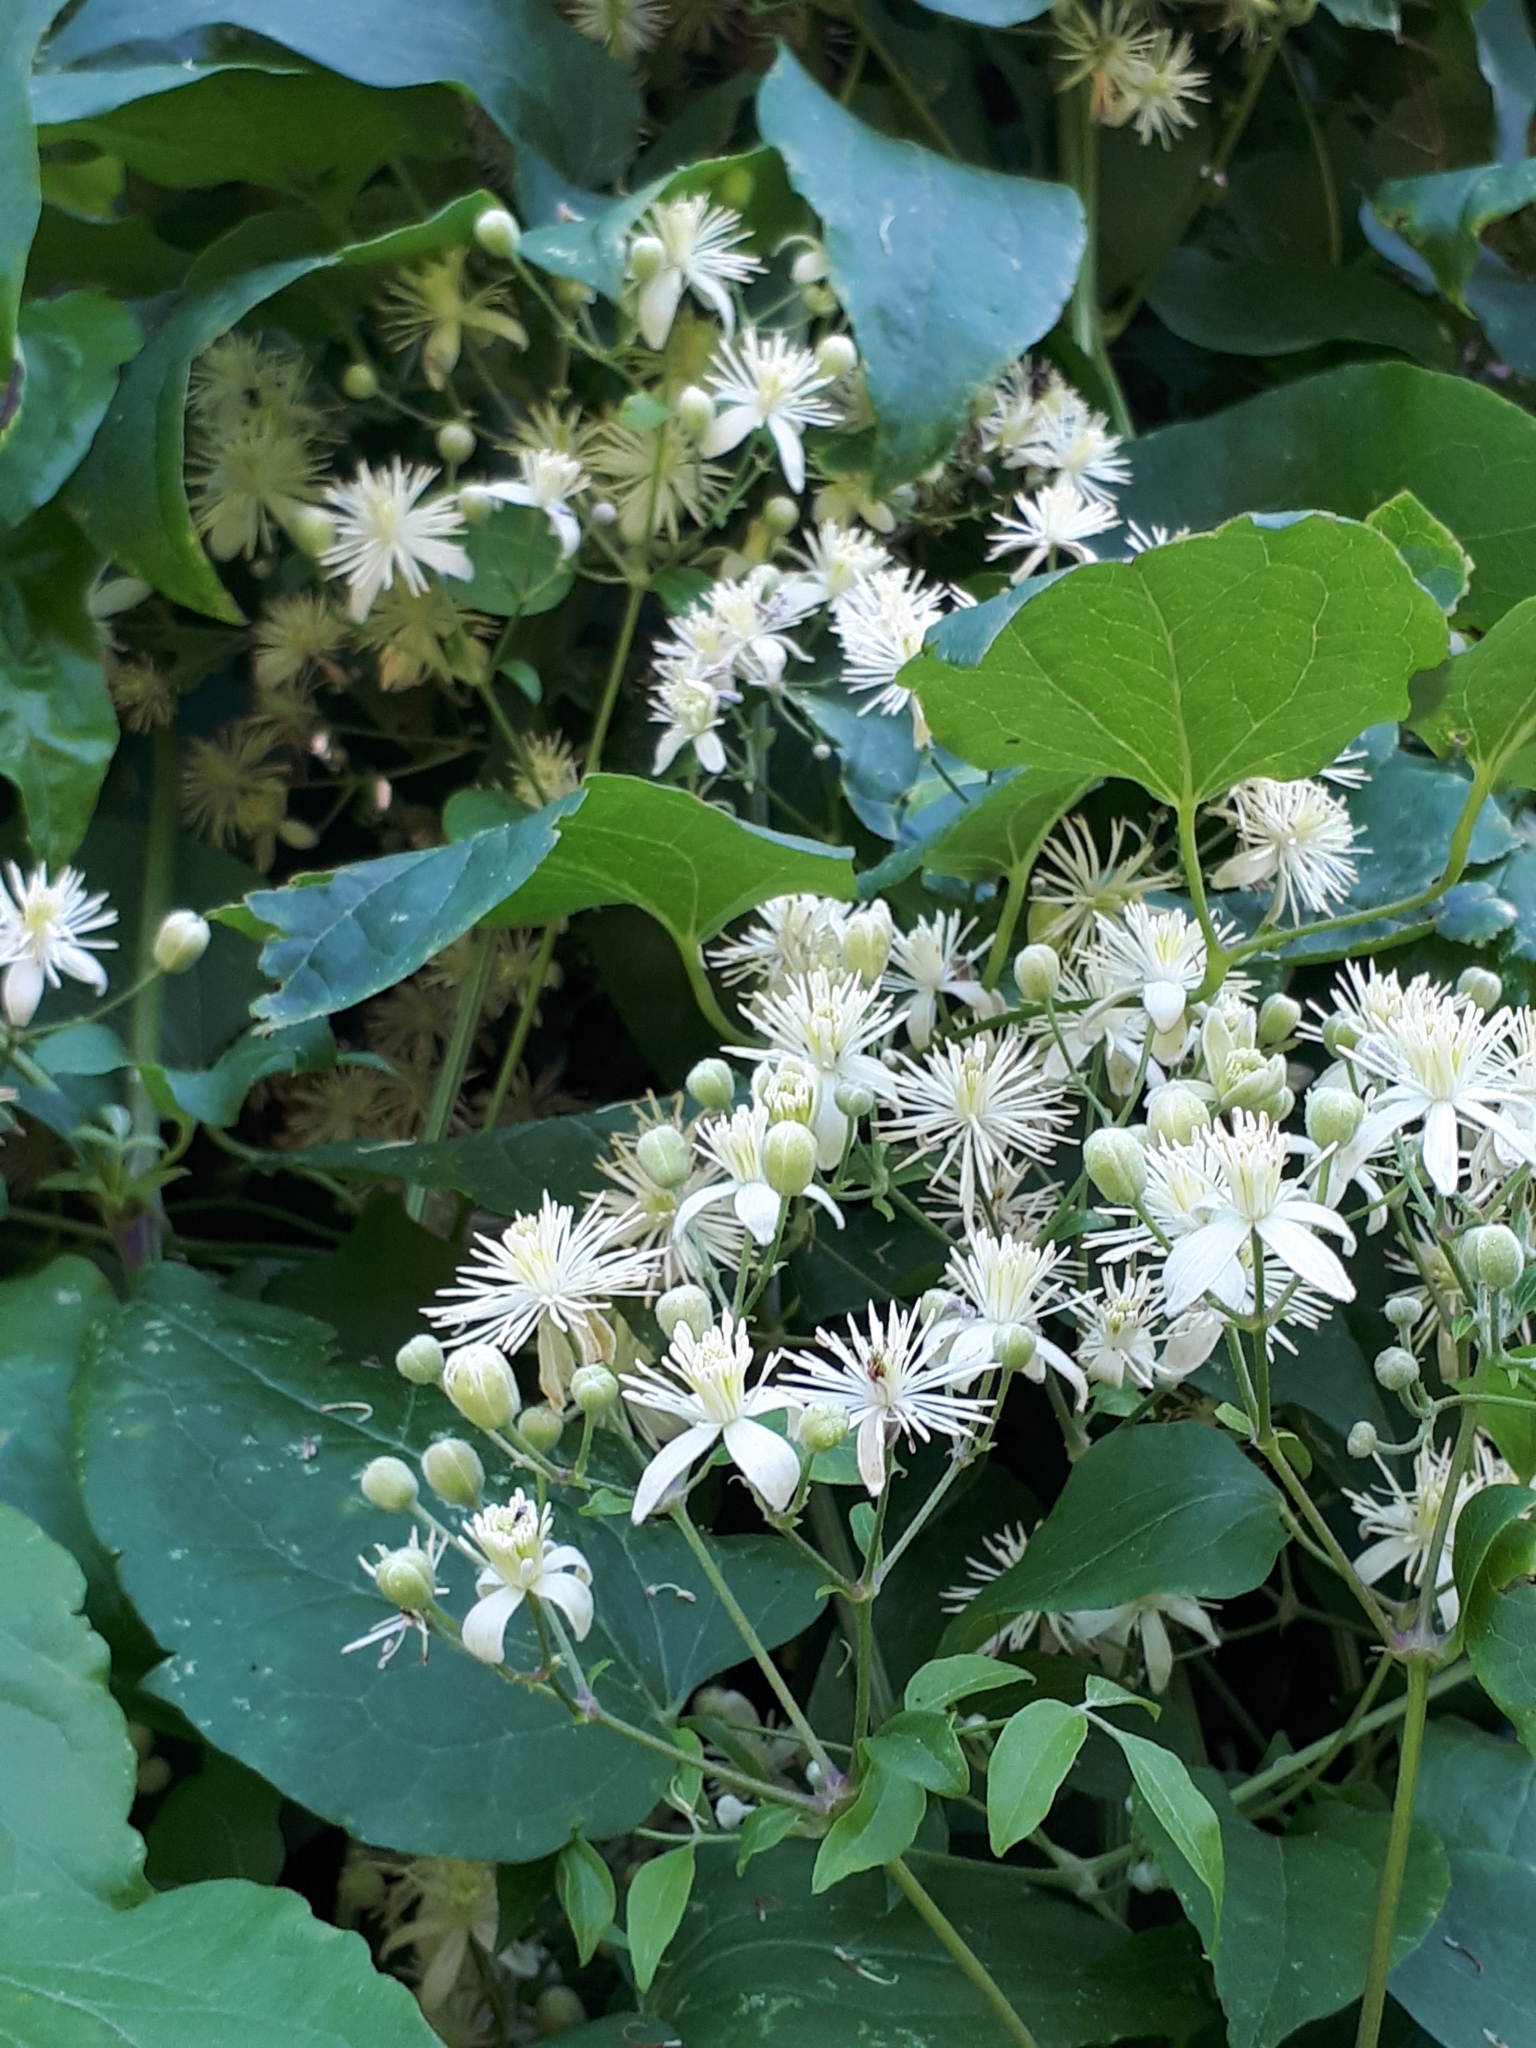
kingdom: Plantae
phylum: Tracheophyta
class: Magnoliopsida
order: Ranunculales
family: Ranunculaceae
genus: Clematis
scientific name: Clematis vitalba
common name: Evergreen clematis
